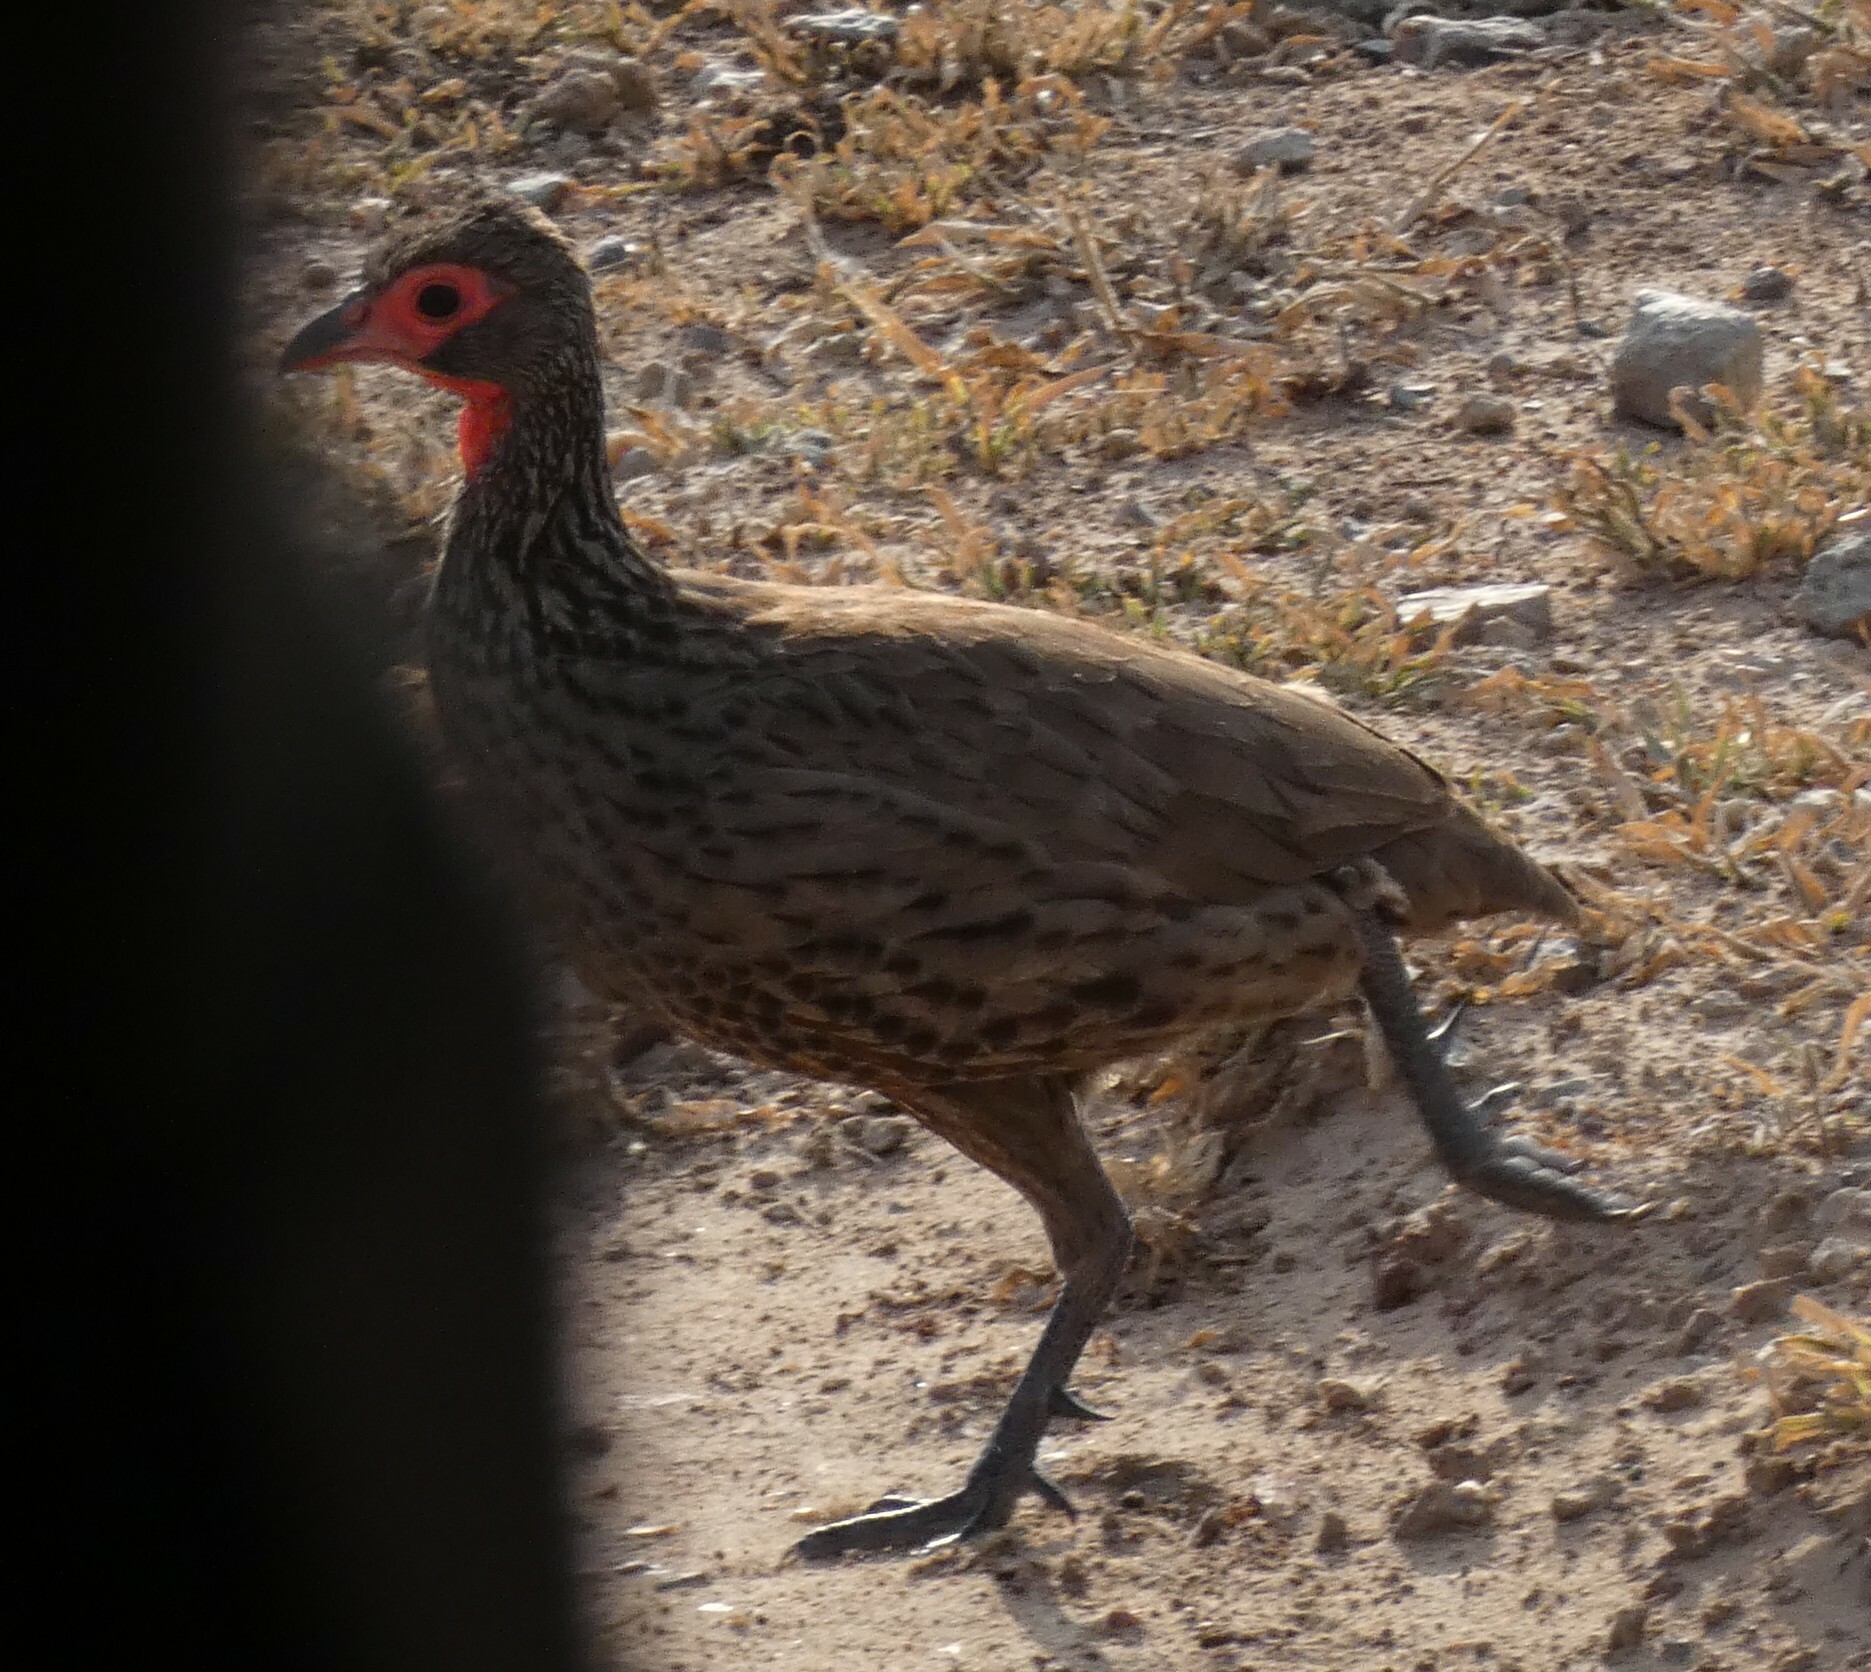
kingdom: Animalia
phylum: Chordata
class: Aves
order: Galliformes
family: Phasianidae
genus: Pternistis
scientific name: Pternistis swainsonii
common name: Swainson's spurfowl
